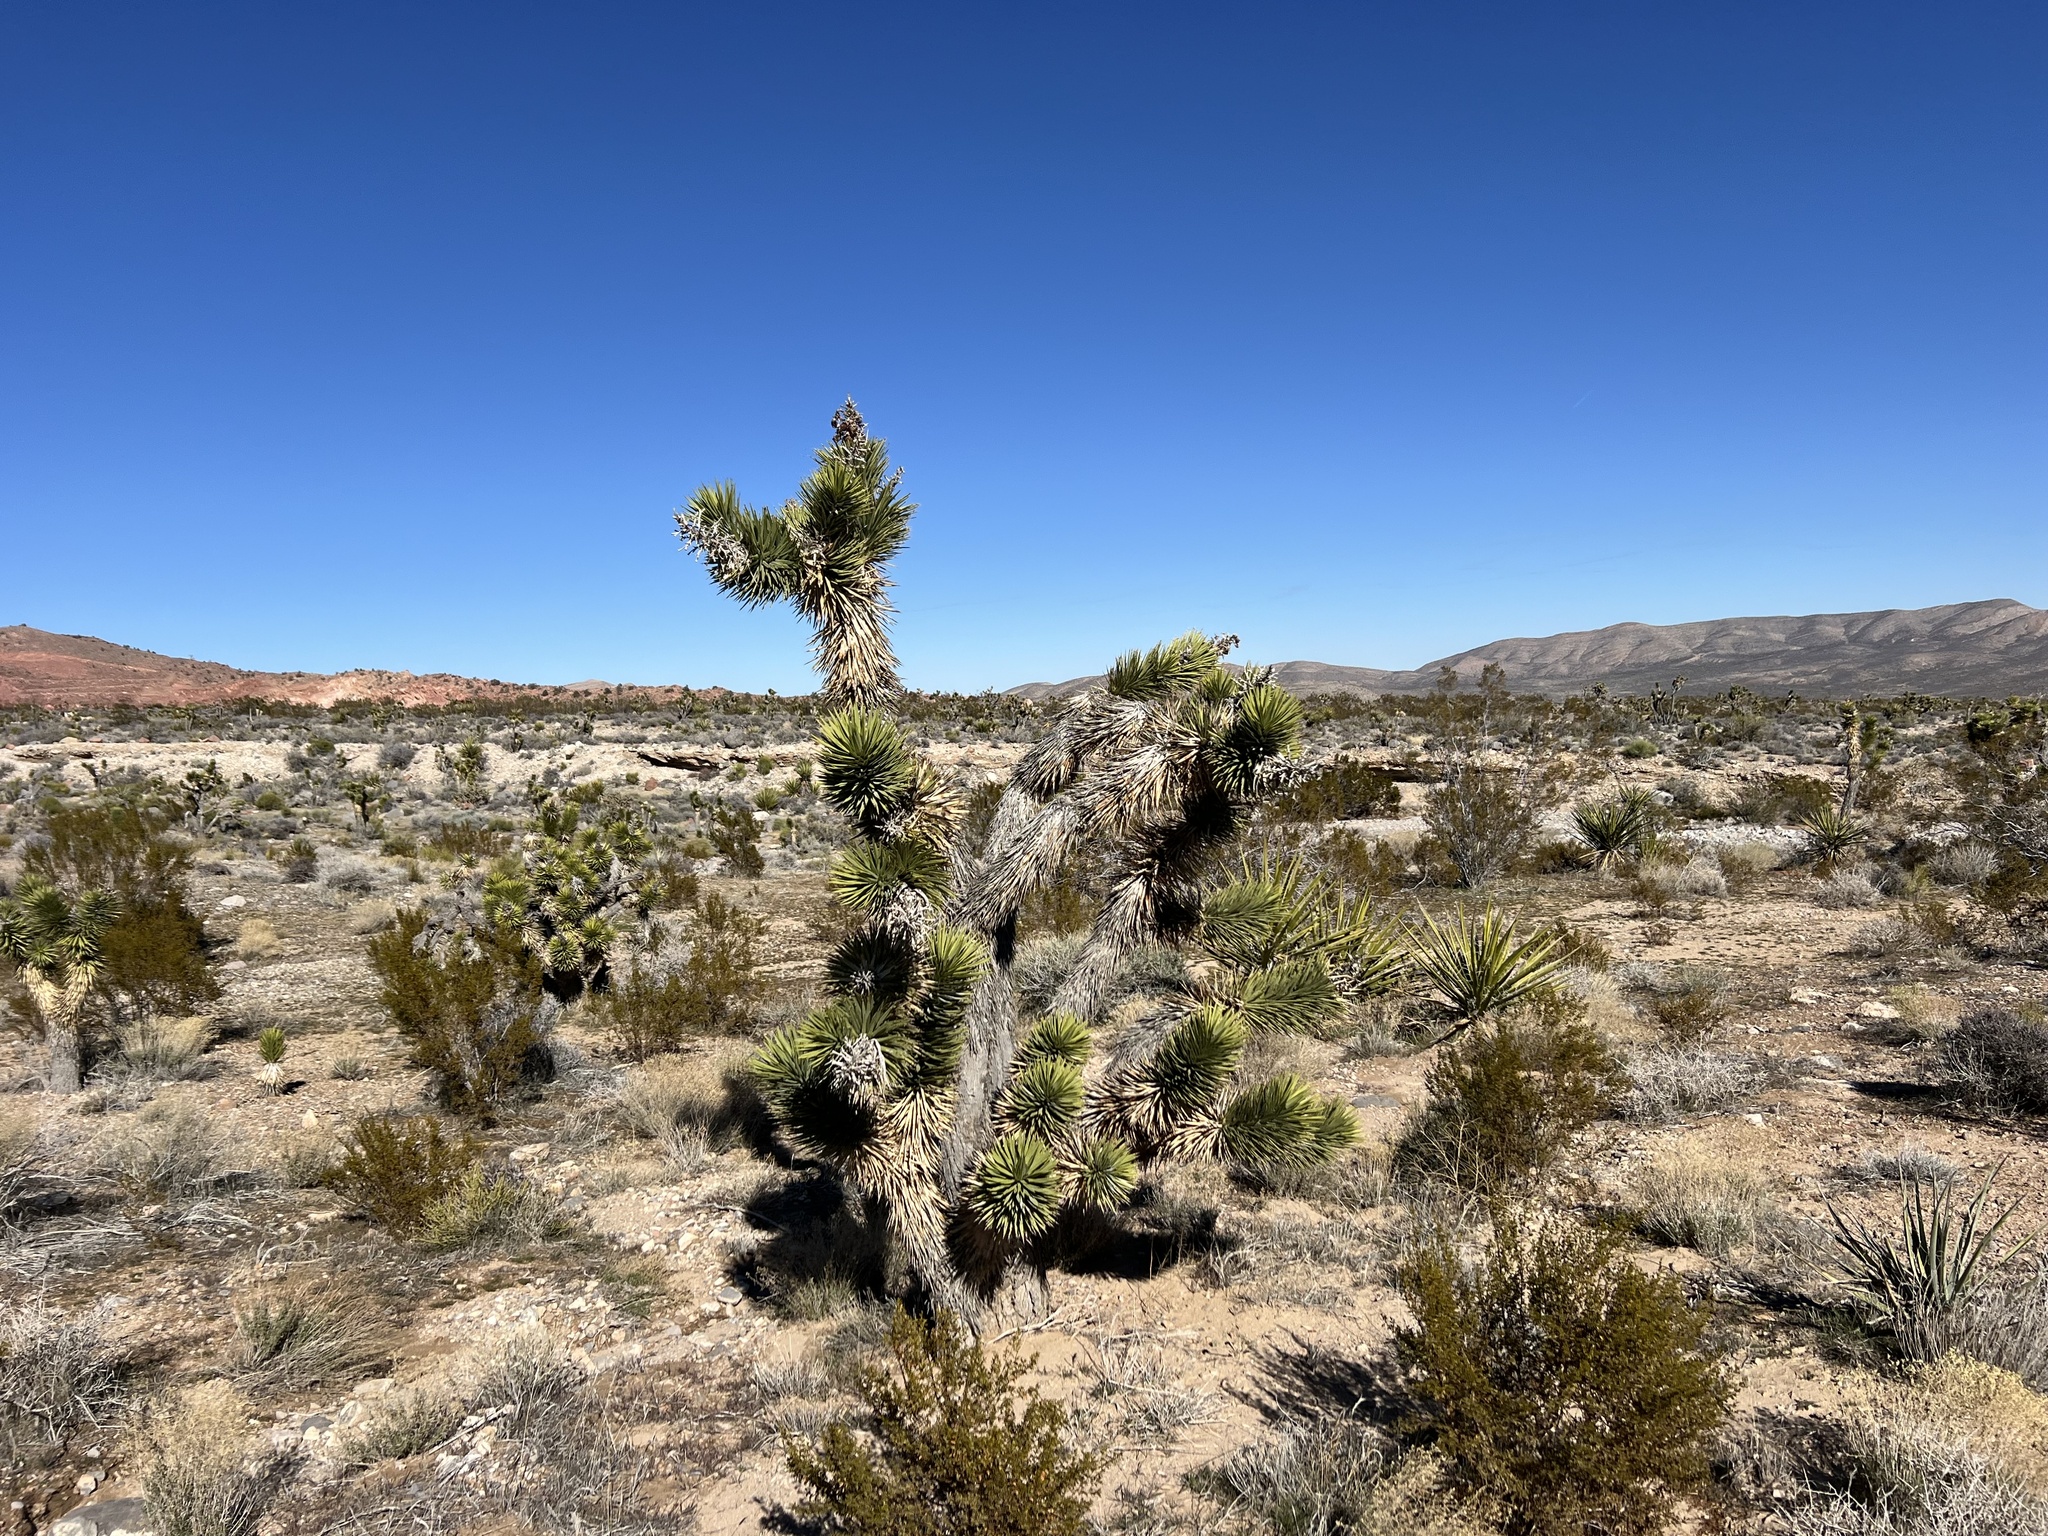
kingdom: Plantae
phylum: Tracheophyta
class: Liliopsida
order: Asparagales
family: Asparagaceae
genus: Yucca
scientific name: Yucca brevifolia
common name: Joshua tree
